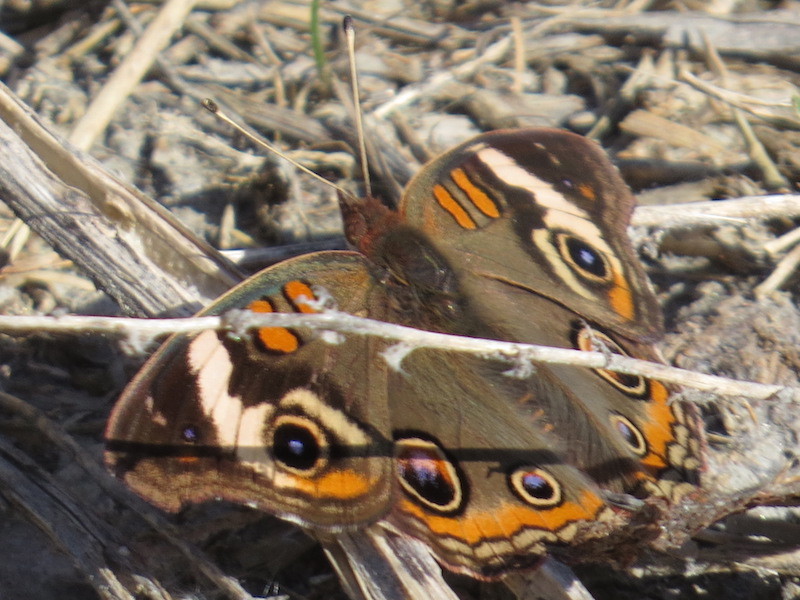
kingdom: Animalia
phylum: Arthropoda
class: Insecta
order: Lepidoptera
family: Nymphalidae
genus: Junonia
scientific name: Junonia coenia
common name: Common buckeye
